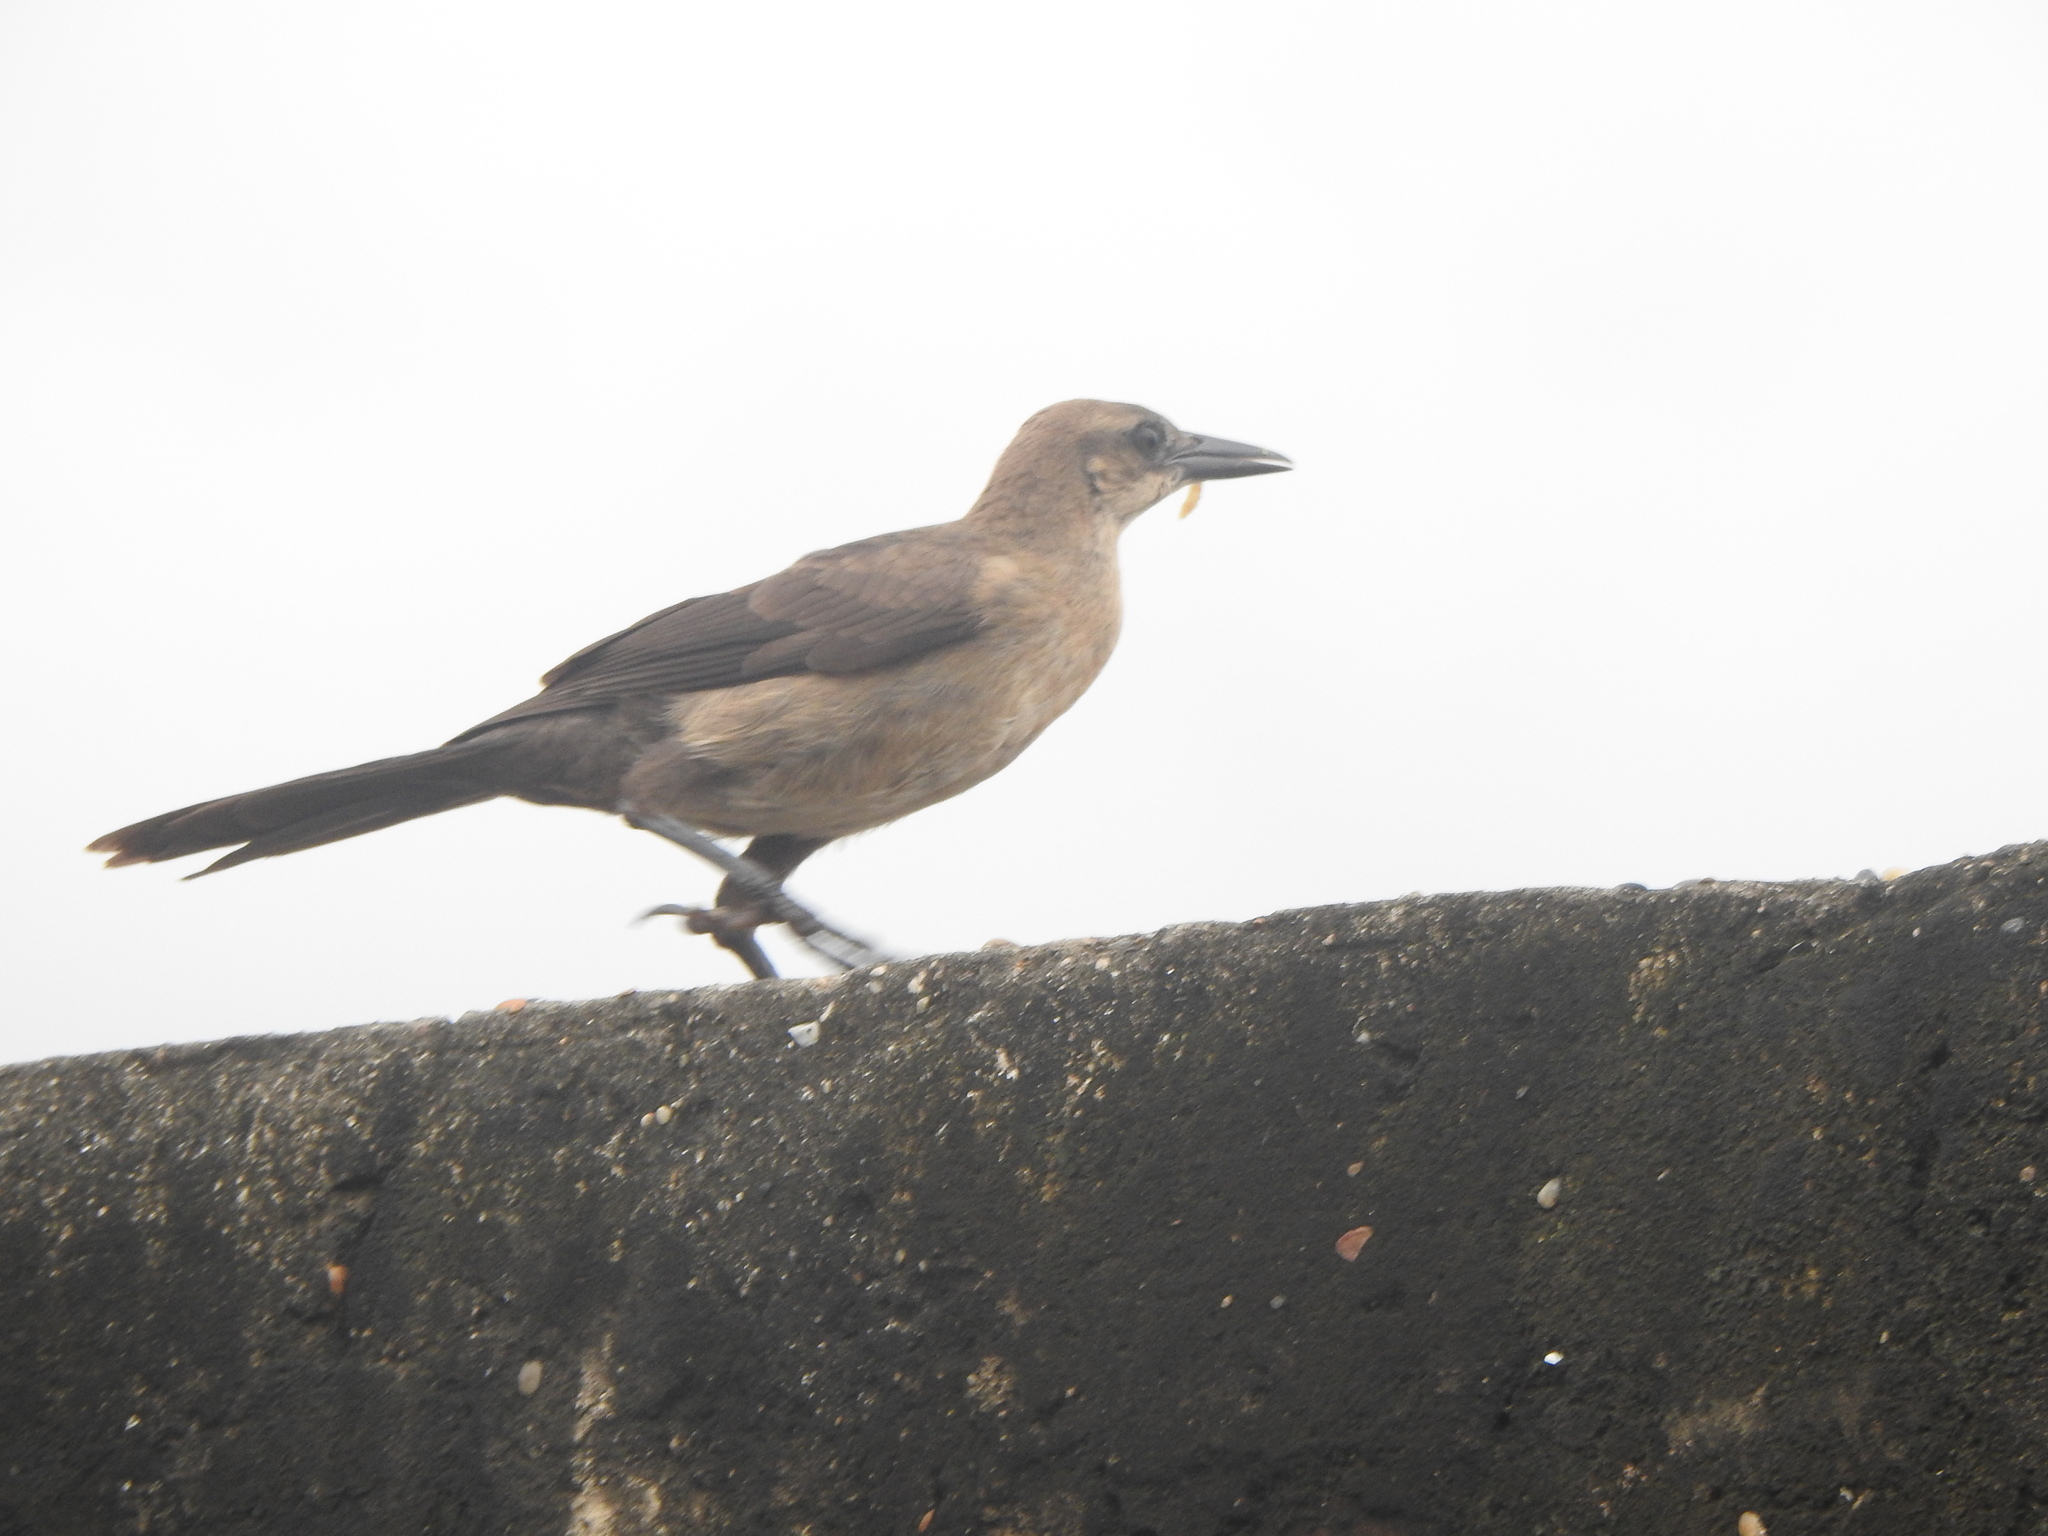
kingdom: Animalia
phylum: Chordata
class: Aves
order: Passeriformes
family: Icteridae
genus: Quiscalus
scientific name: Quiscalus mexicanus
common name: Great-tailed grackle
